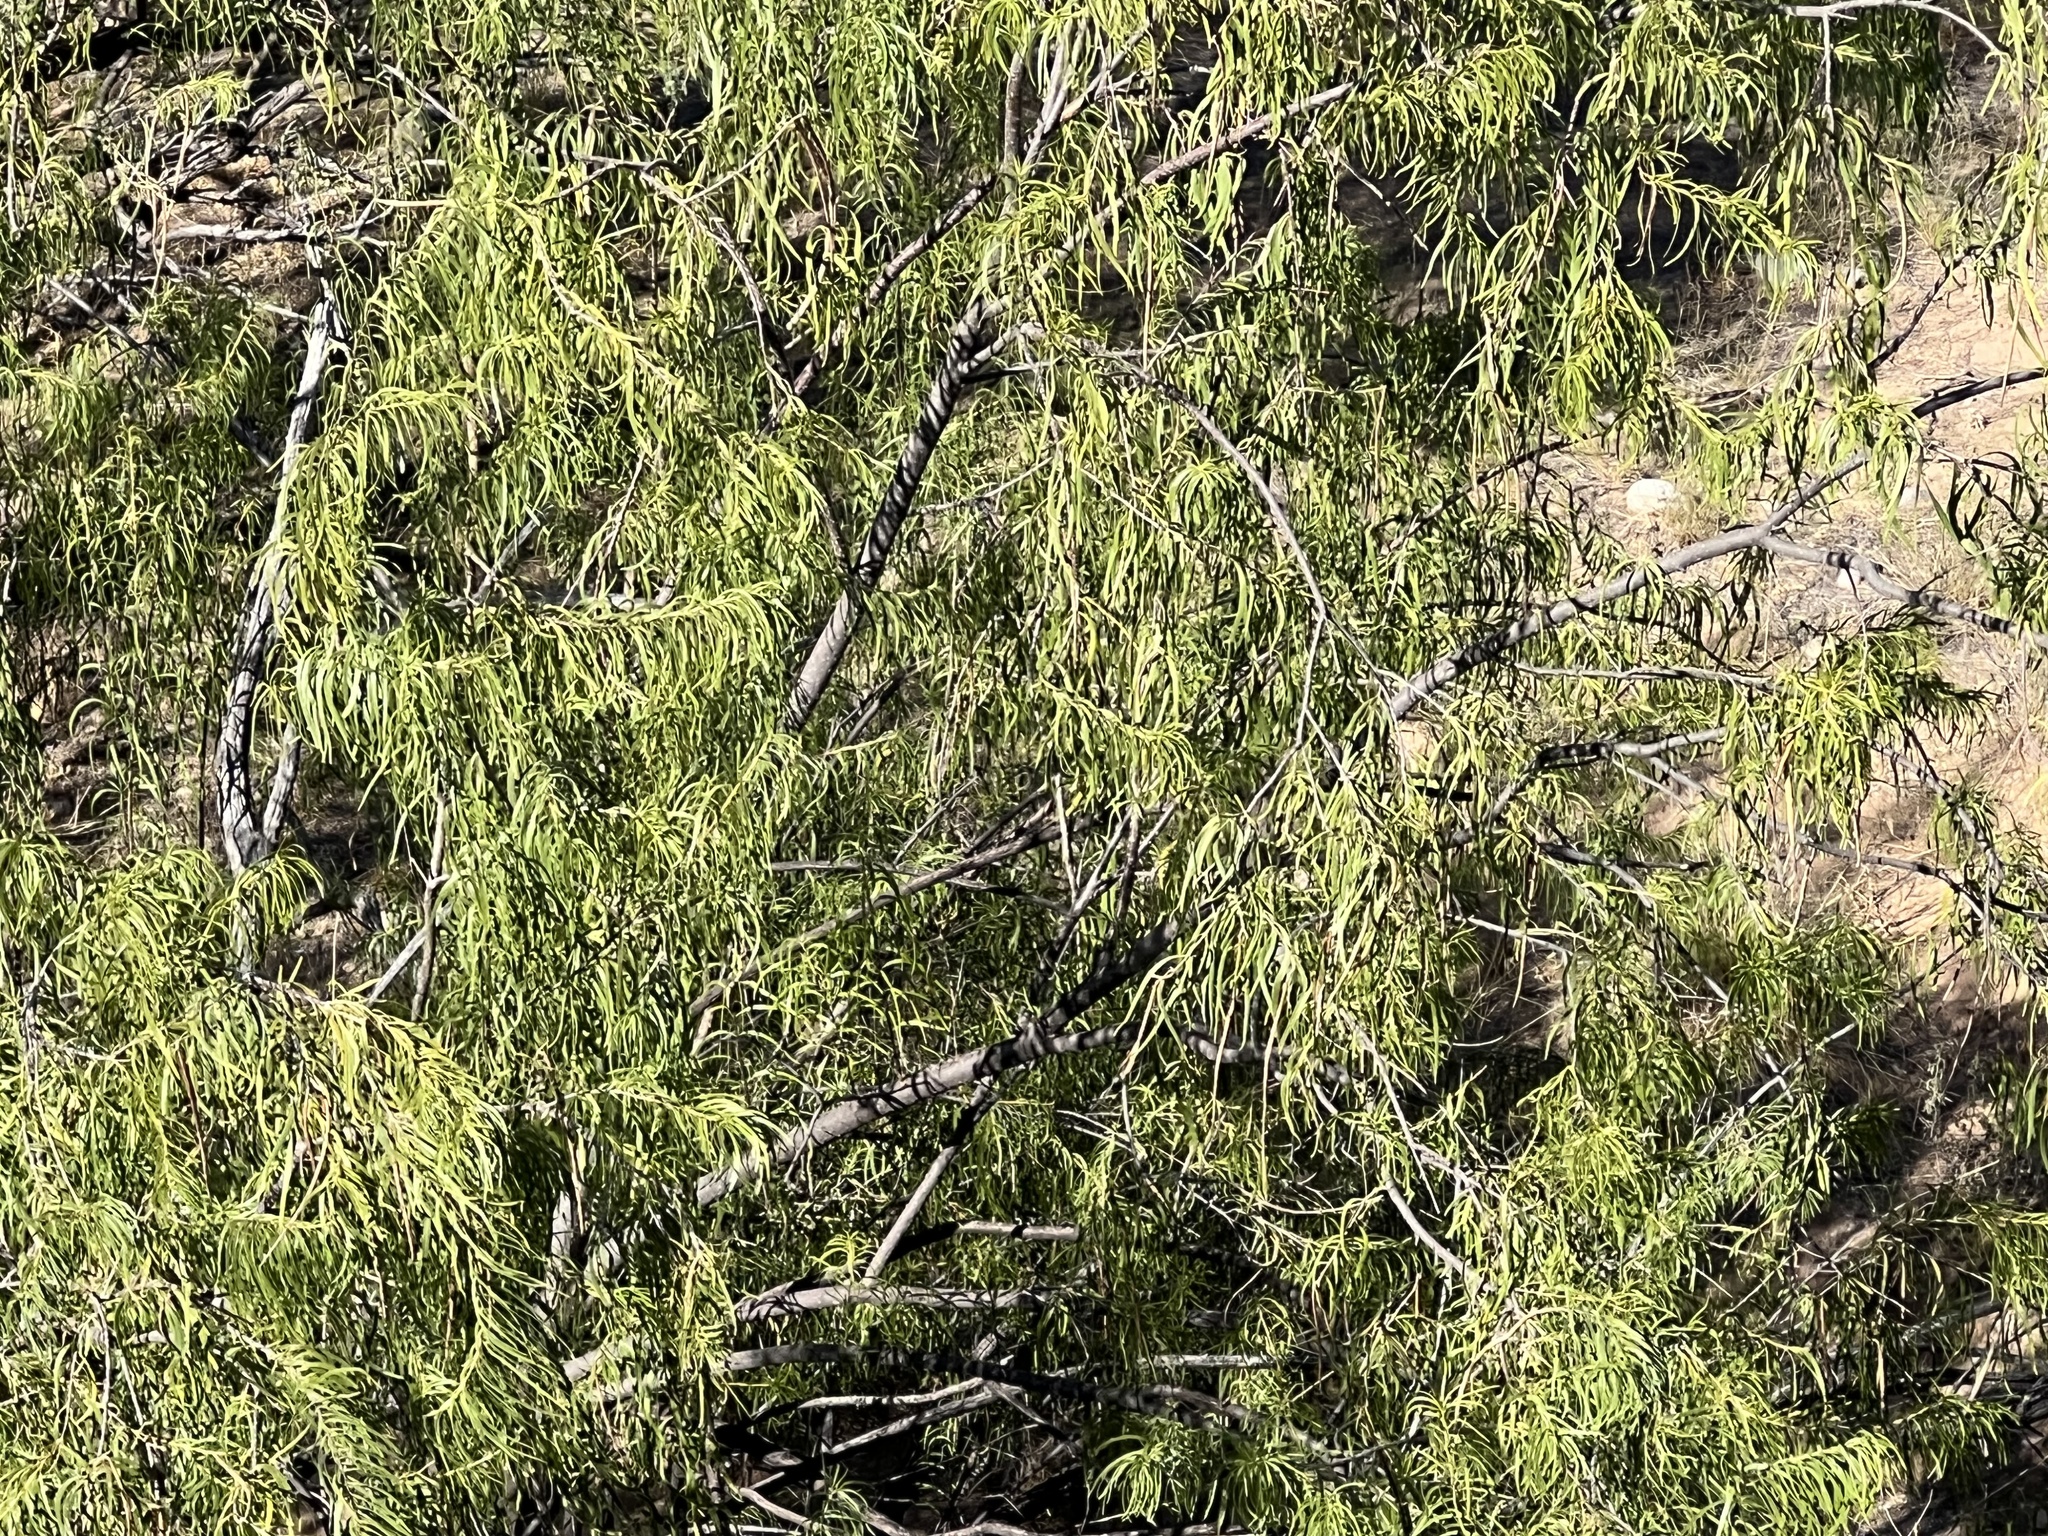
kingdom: Plantae
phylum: Tracheophyta
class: Magnoliopsida
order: Lamiales
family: Bignoniaceae
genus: Chilopsis
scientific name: Chilopsis linearis
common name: Desert-willow
